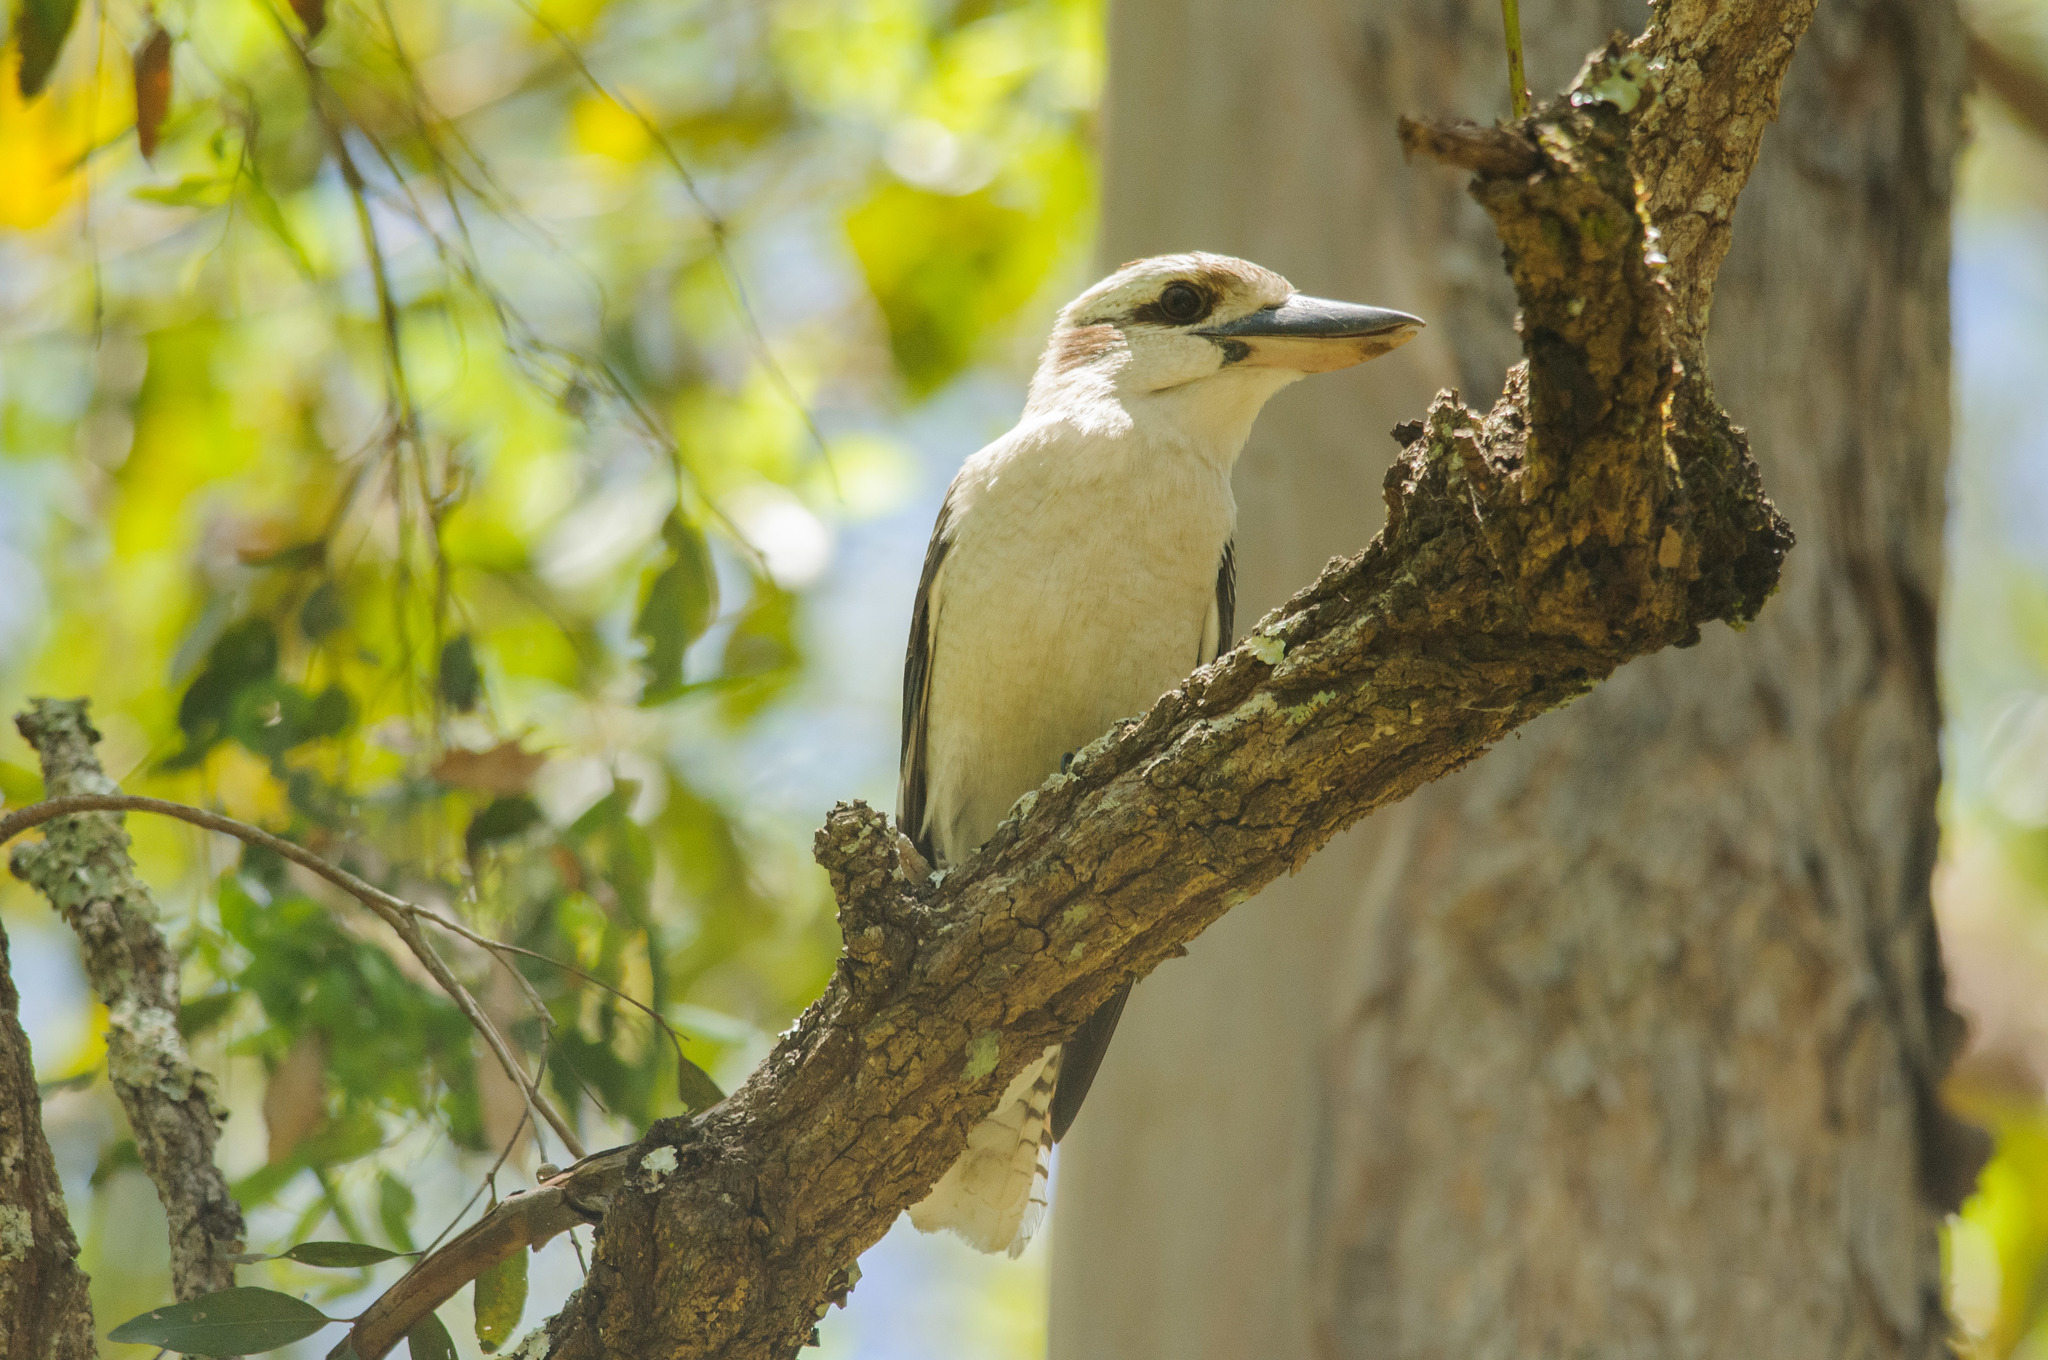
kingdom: Animalia
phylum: Chordata
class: Aves
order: Coraciiformes
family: Alcedinidae
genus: Dacelo
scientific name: Dacelo novaeguineae
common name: Laughing kookaburra
